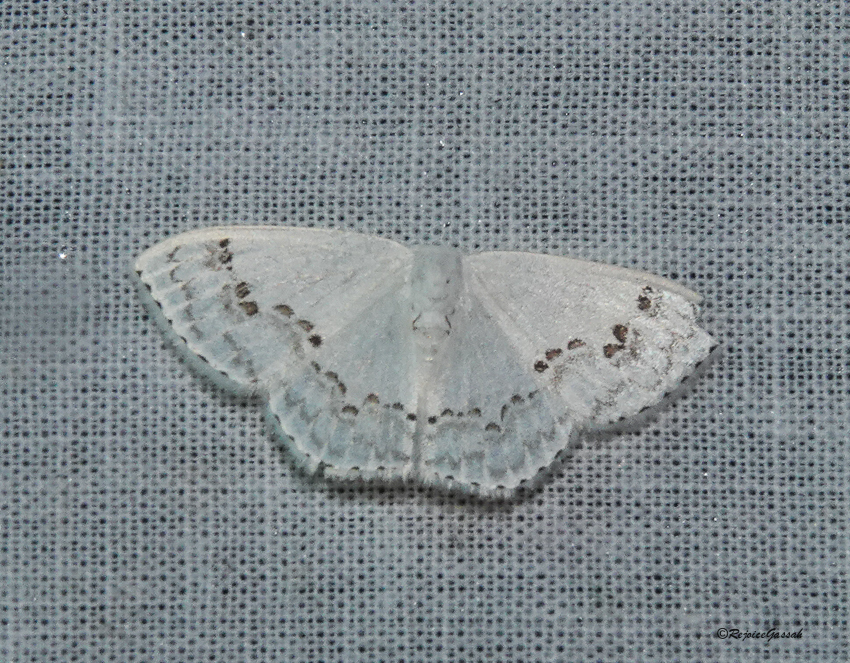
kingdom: Animalia
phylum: Arthropoda
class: Insecta
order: Lepidoptera
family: Drepanidae
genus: Teldenia
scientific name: Teldenia vestigiata
